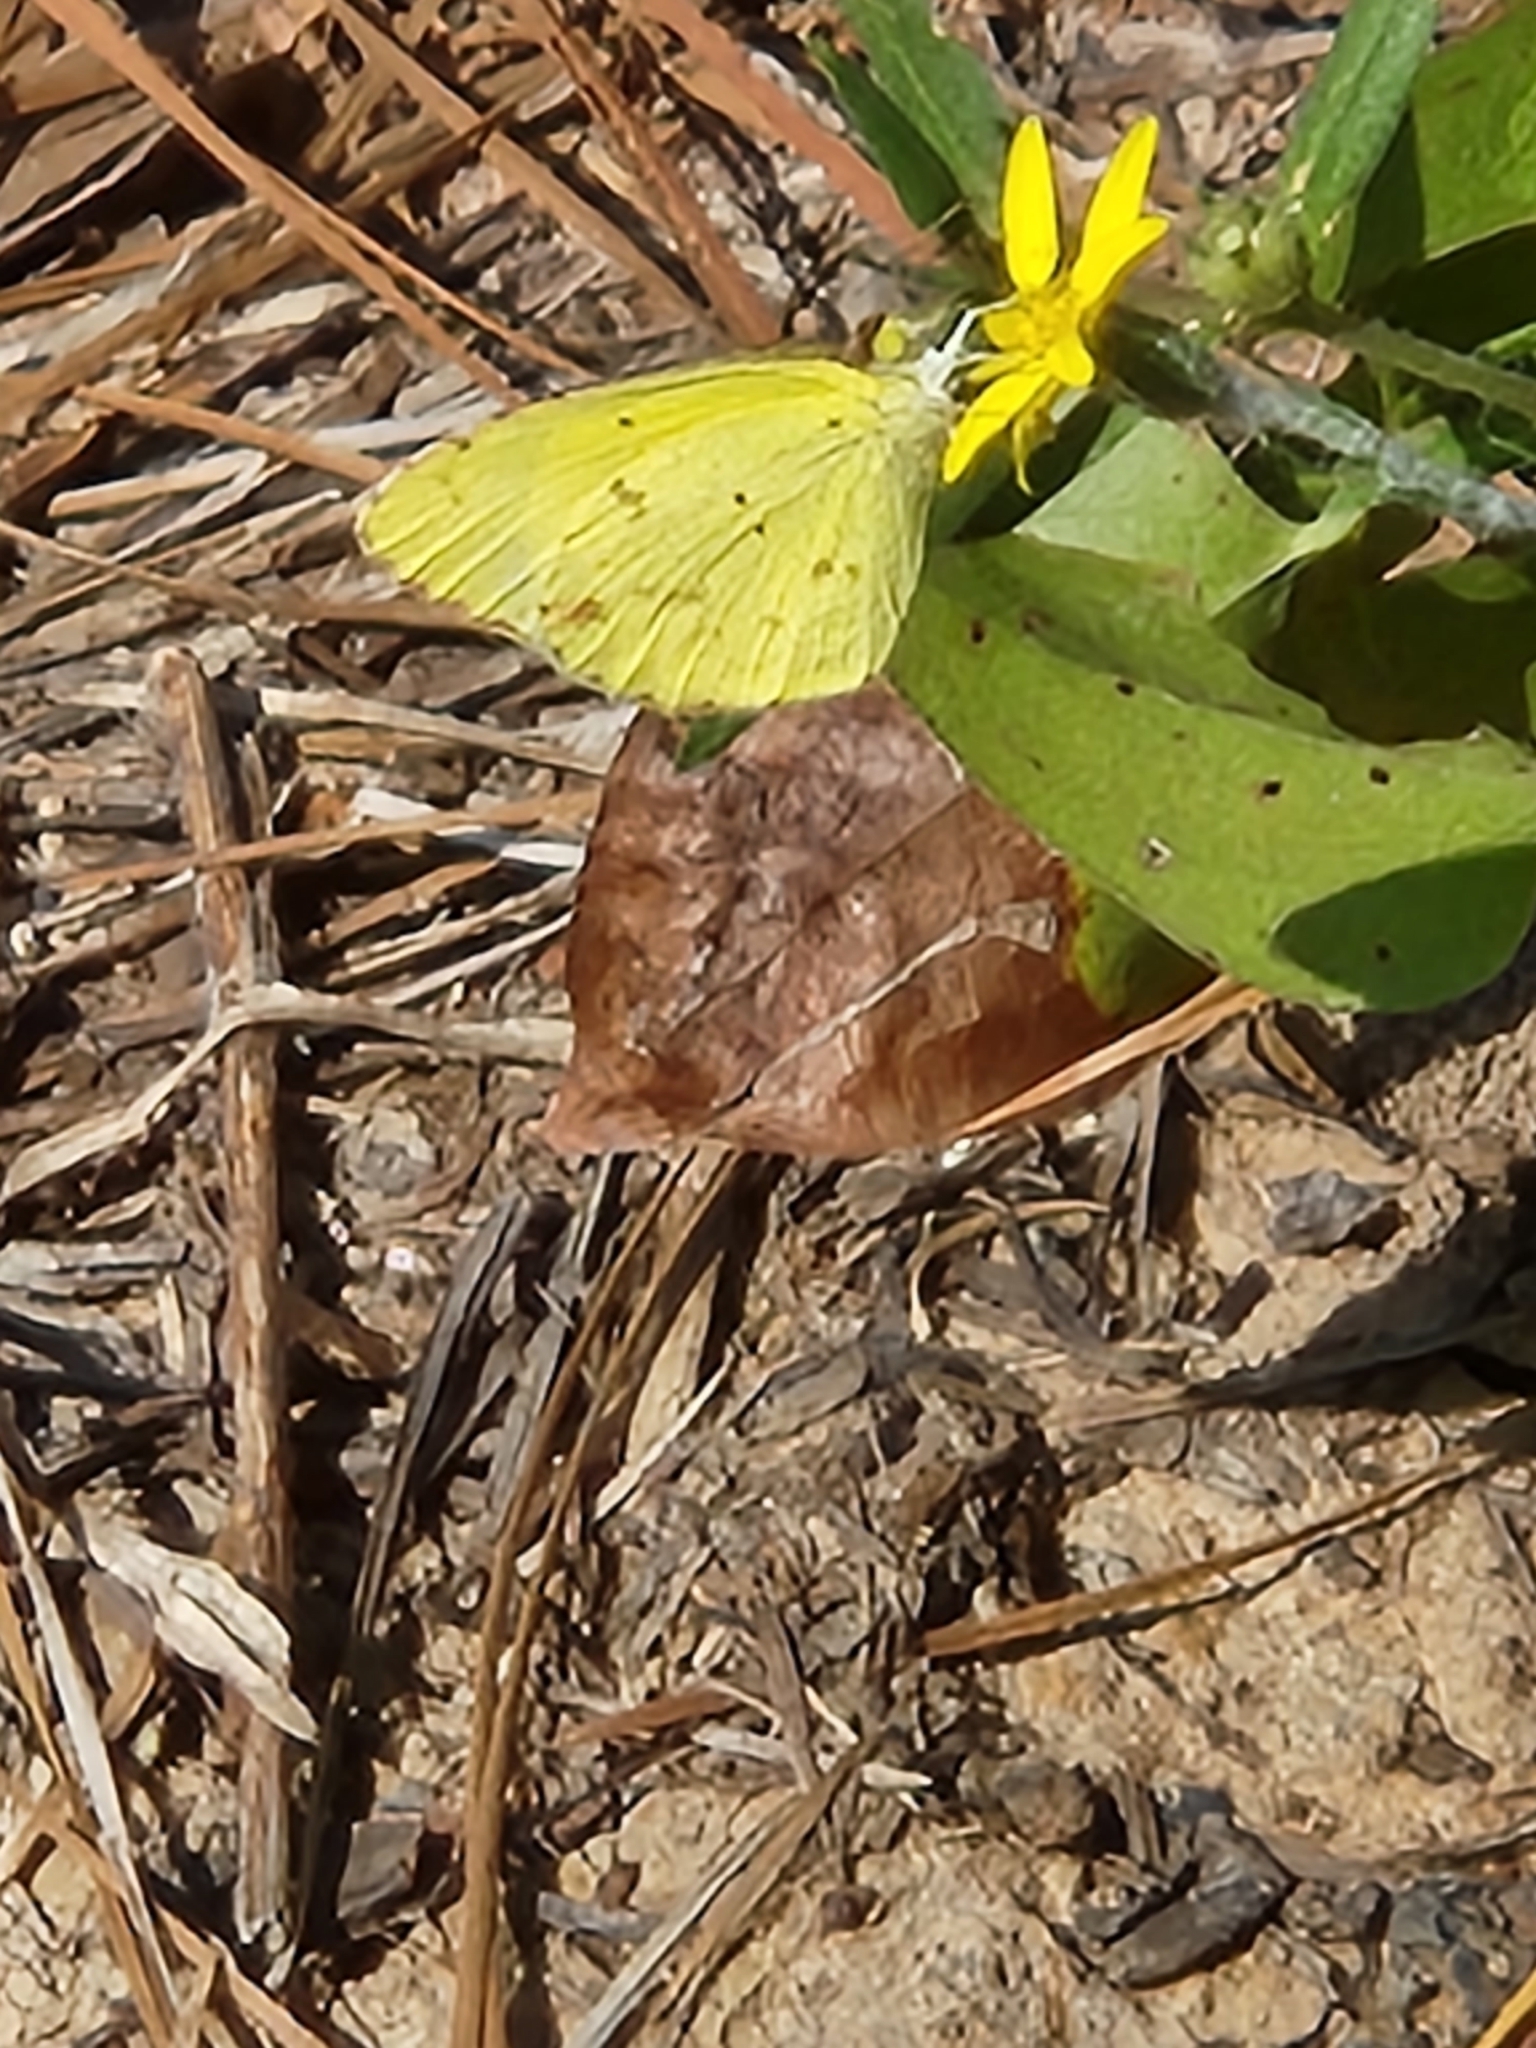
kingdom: Animalia
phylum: Arthropoda
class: Insecta
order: Lepidoptera
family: Pieridae
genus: Pyrisitia
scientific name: Pyrisitia lisa
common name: Little yellow
